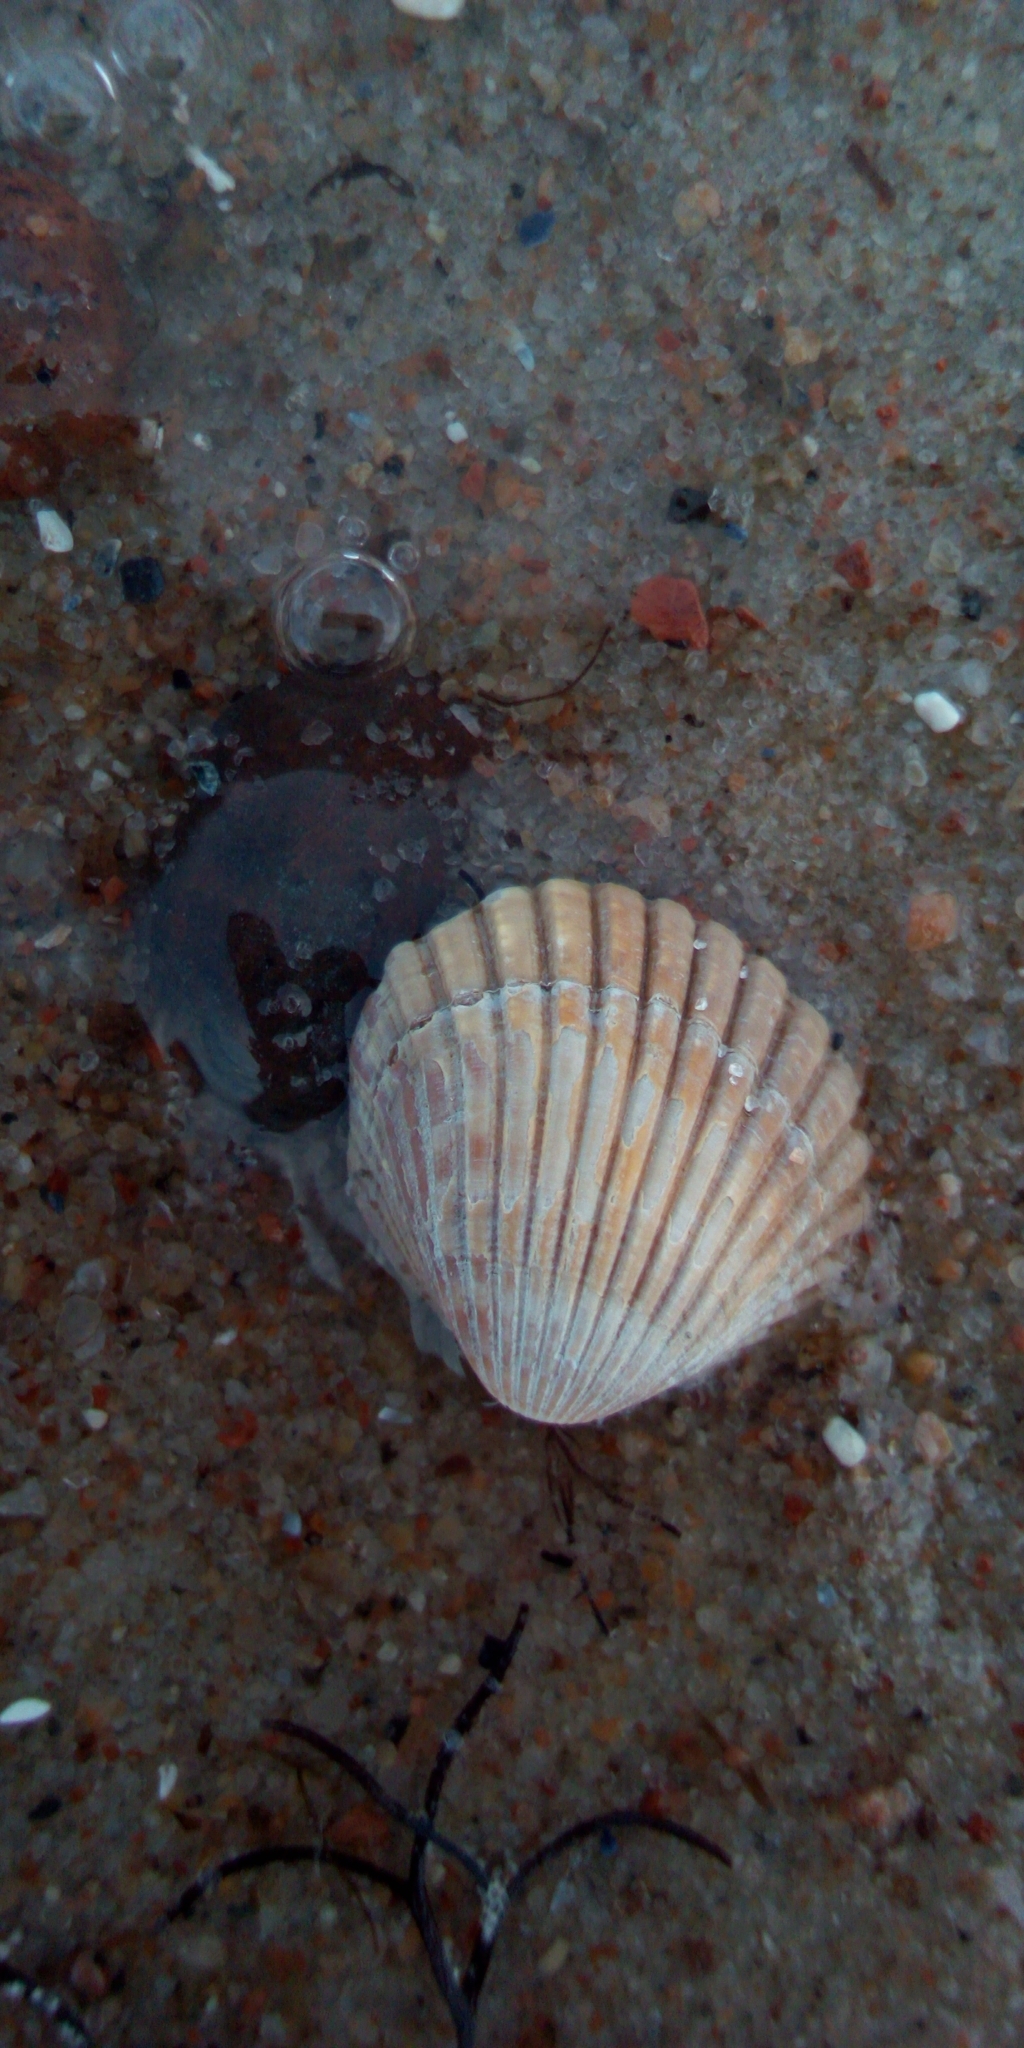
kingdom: Animalia
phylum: Mollusca
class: Bivalvia
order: Cardiida
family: Cardiidae
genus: Cerastoderma
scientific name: Cerastoderma glaucum
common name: Lagoon cockle
